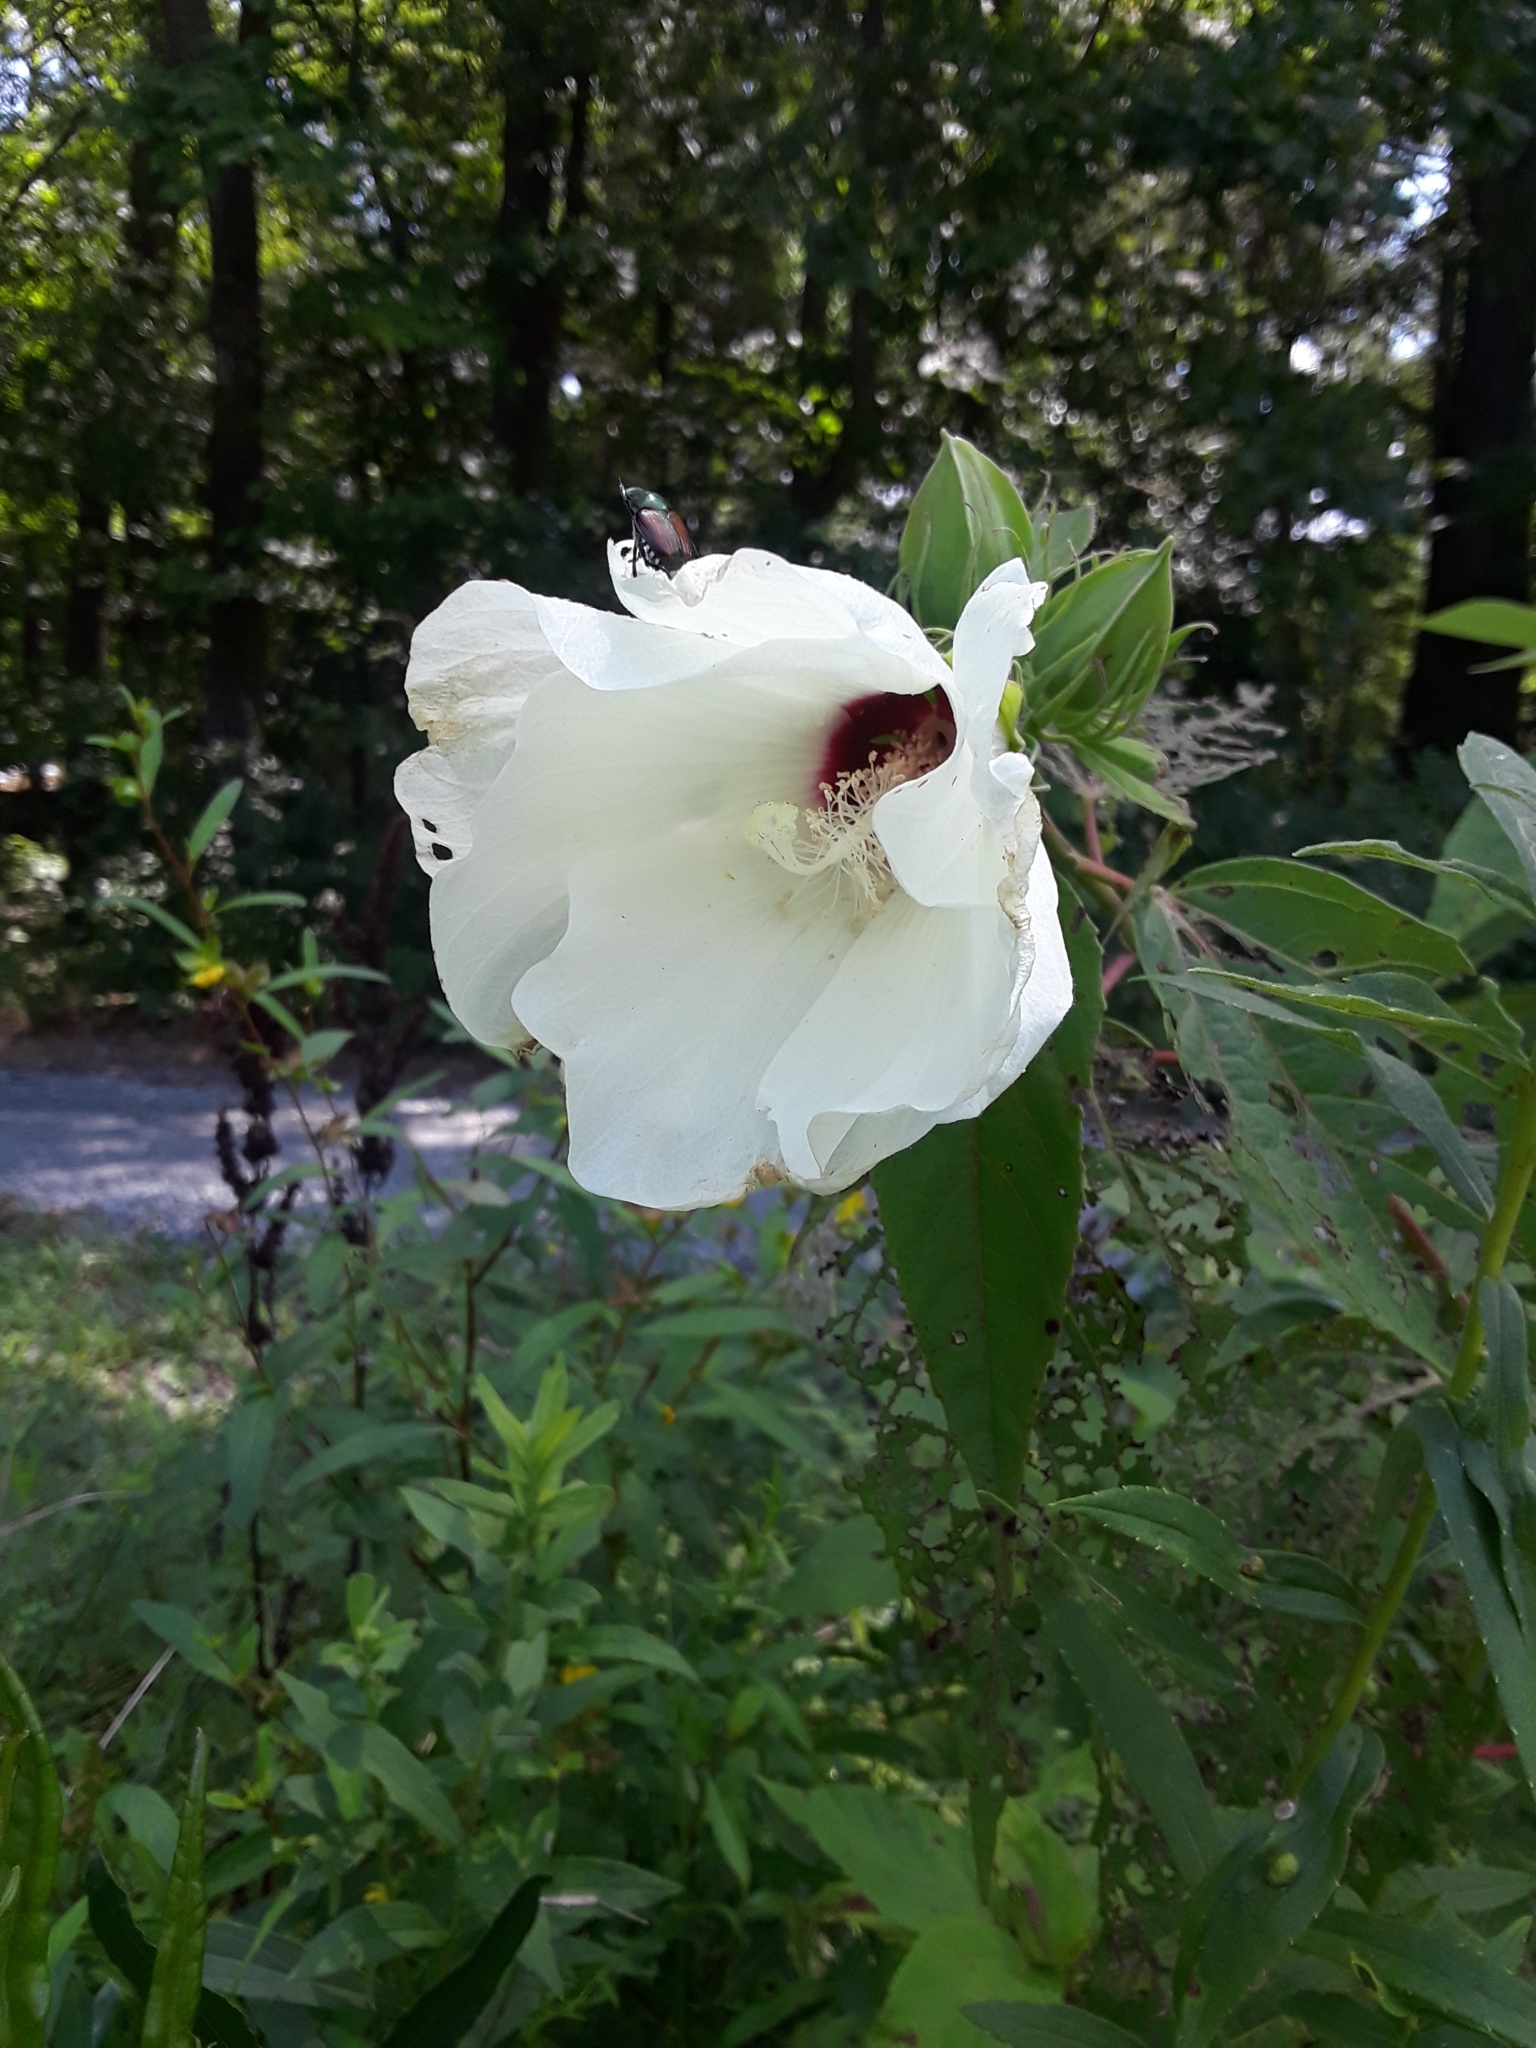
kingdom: Plantae
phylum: Tracheophyta
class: Magnoliopsida
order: Malvales
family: Malvaceae
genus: Hibiscus
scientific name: Hibiscus moscheutos
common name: Common rose-mallow
